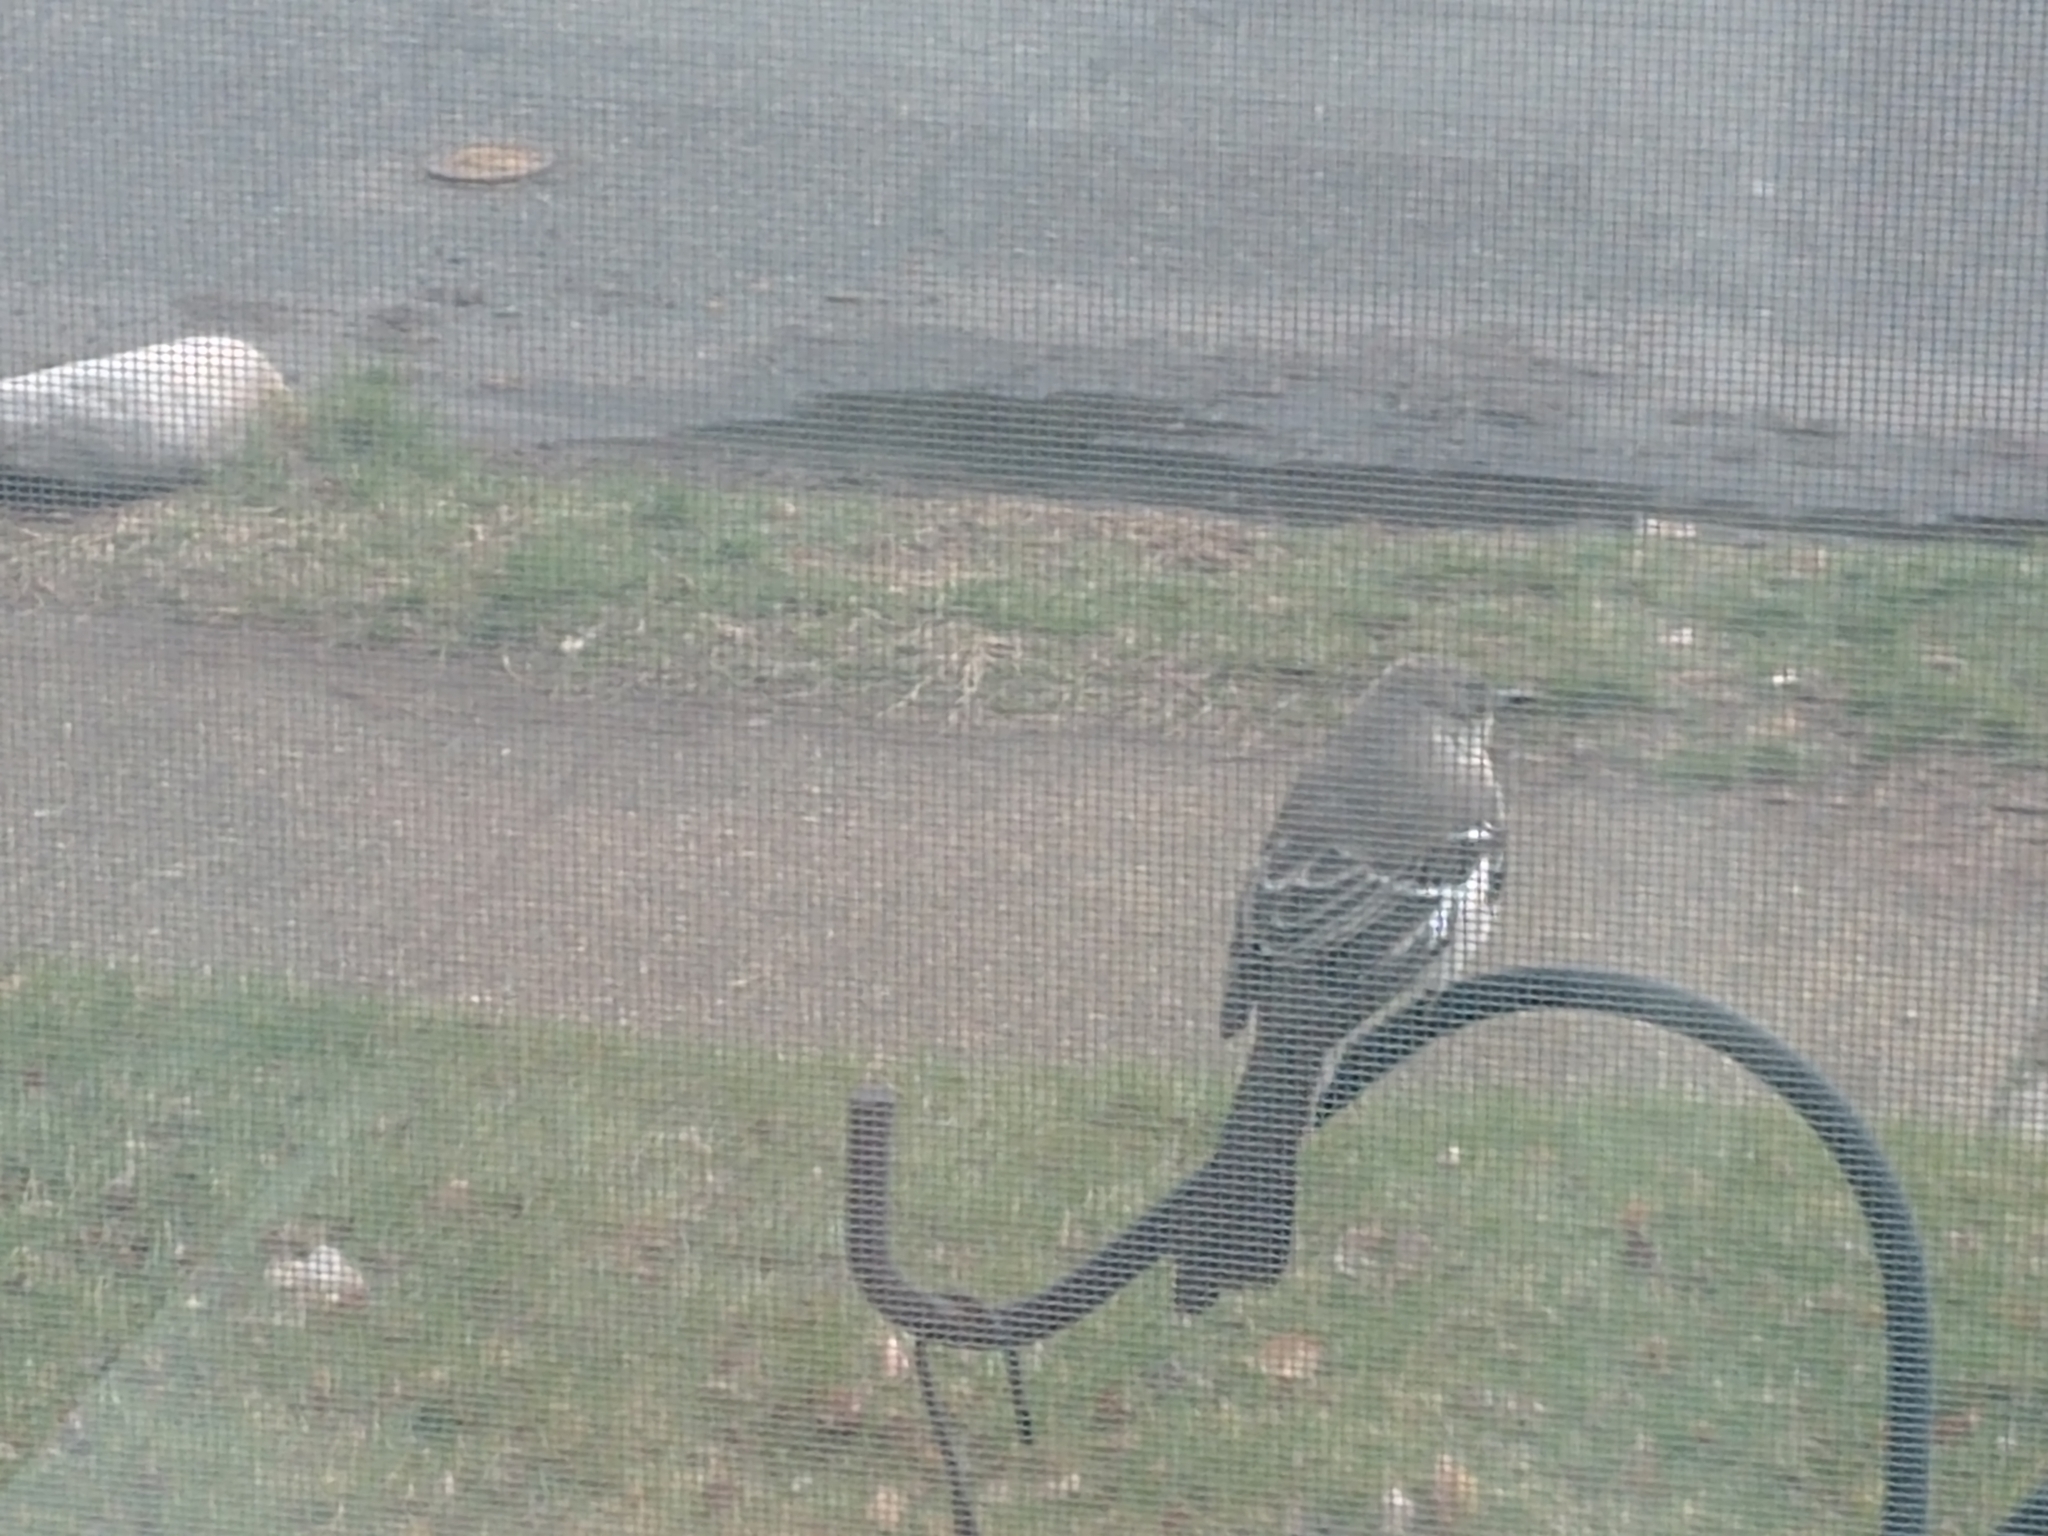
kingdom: Animalia
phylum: Chordata
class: Aves
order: Passeriformes
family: Mimidae
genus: Mimus
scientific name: Mimus polyglottos
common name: Northern mockingbird
